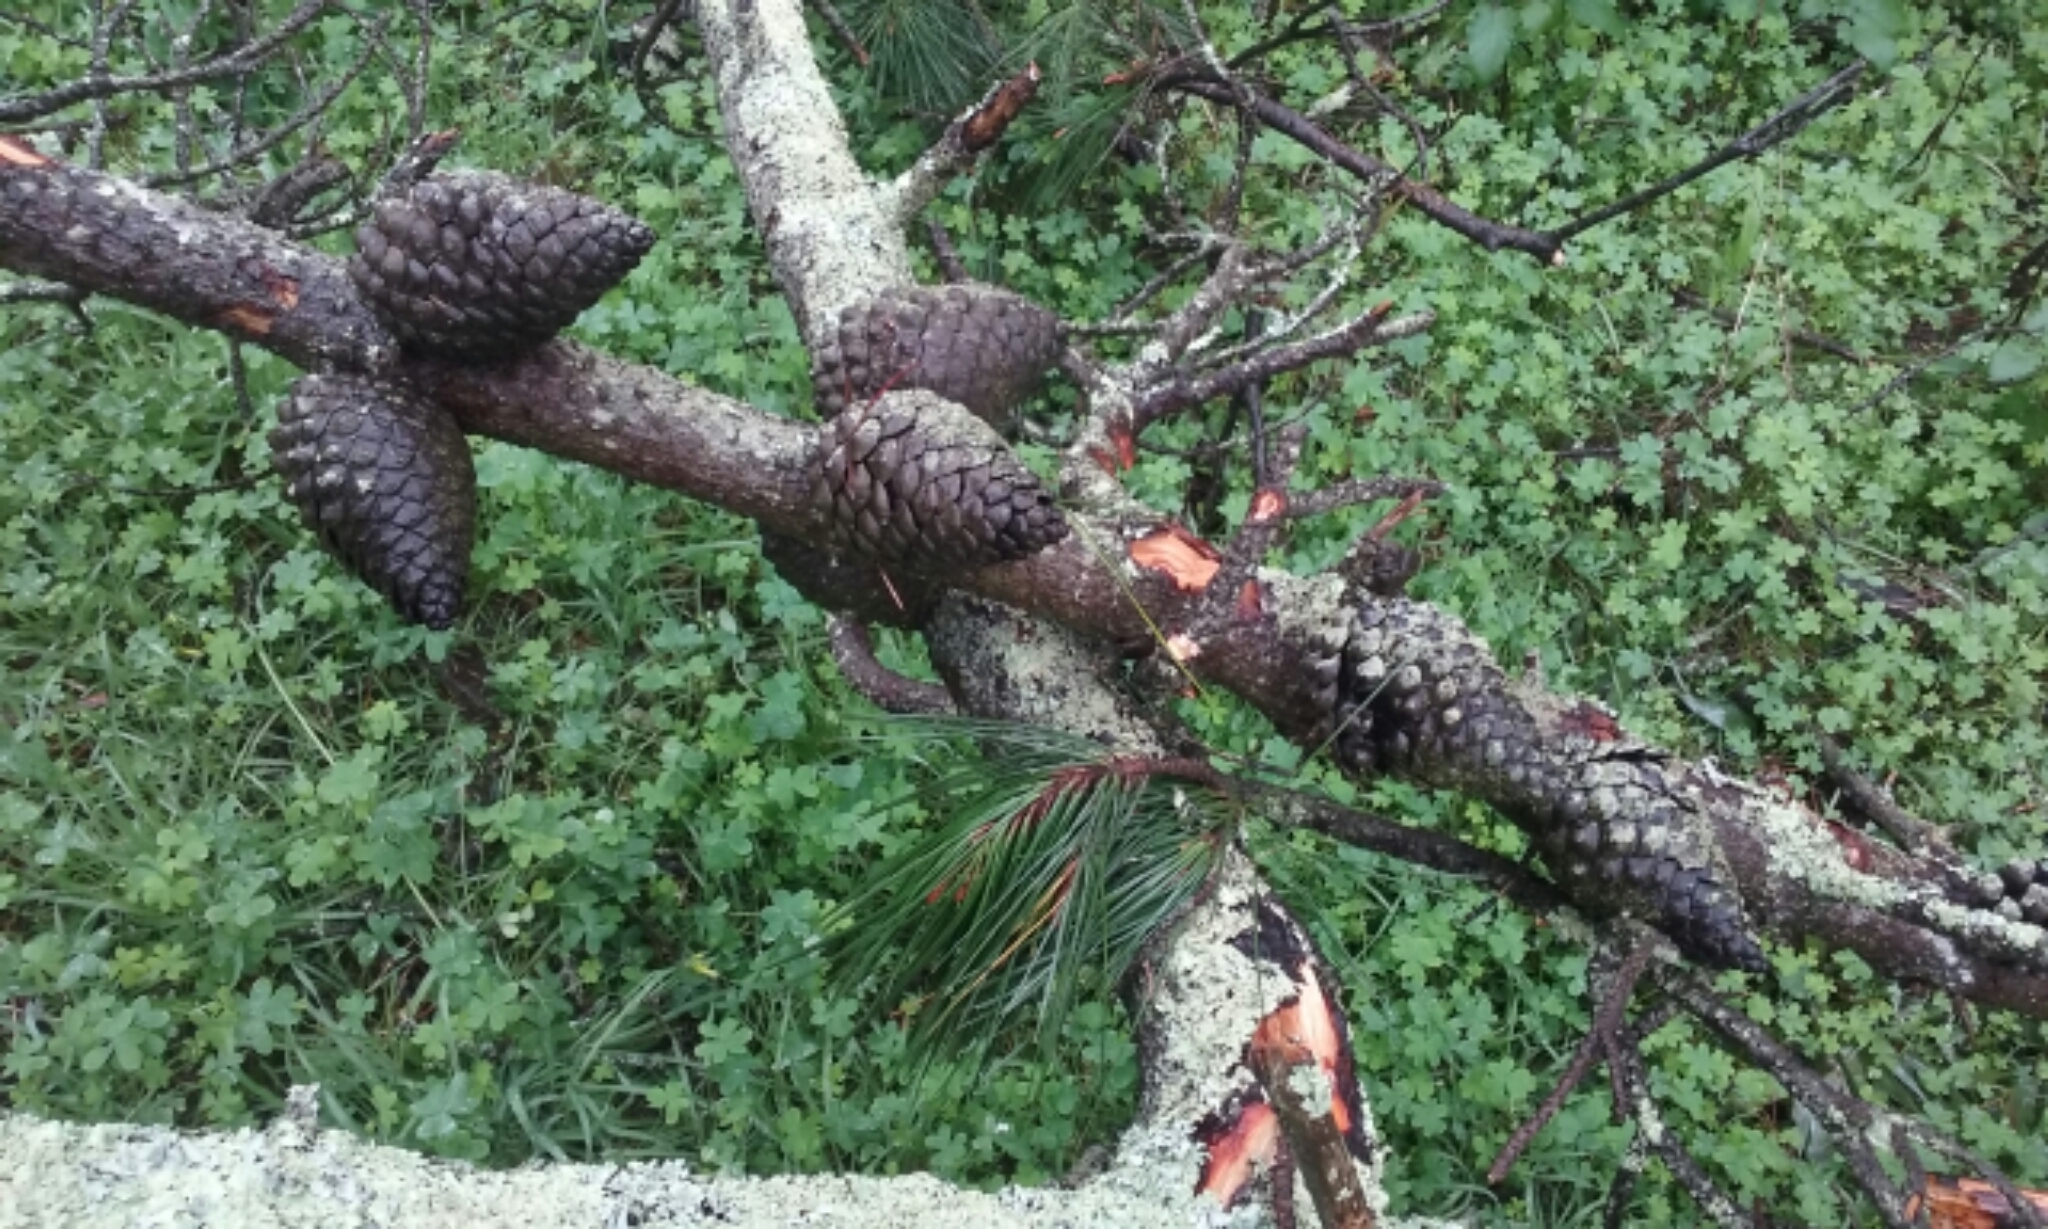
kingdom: Plantae
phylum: Tracheophyta
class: Pinopsida
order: Pinales
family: Pinaceae
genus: Pinus
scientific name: Pinus radiata
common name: Monterey pine
